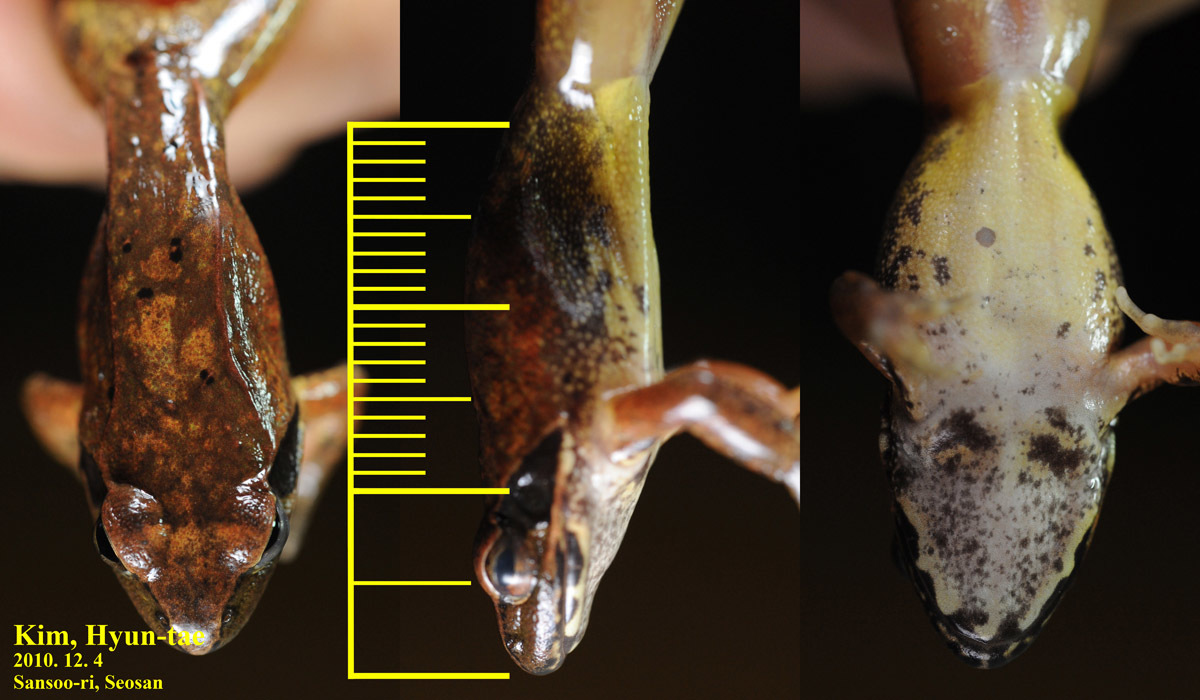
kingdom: Animalia
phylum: Chordata
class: Amphibia
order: Anura
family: Ranidae
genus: Rana
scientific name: Rana uenoi
